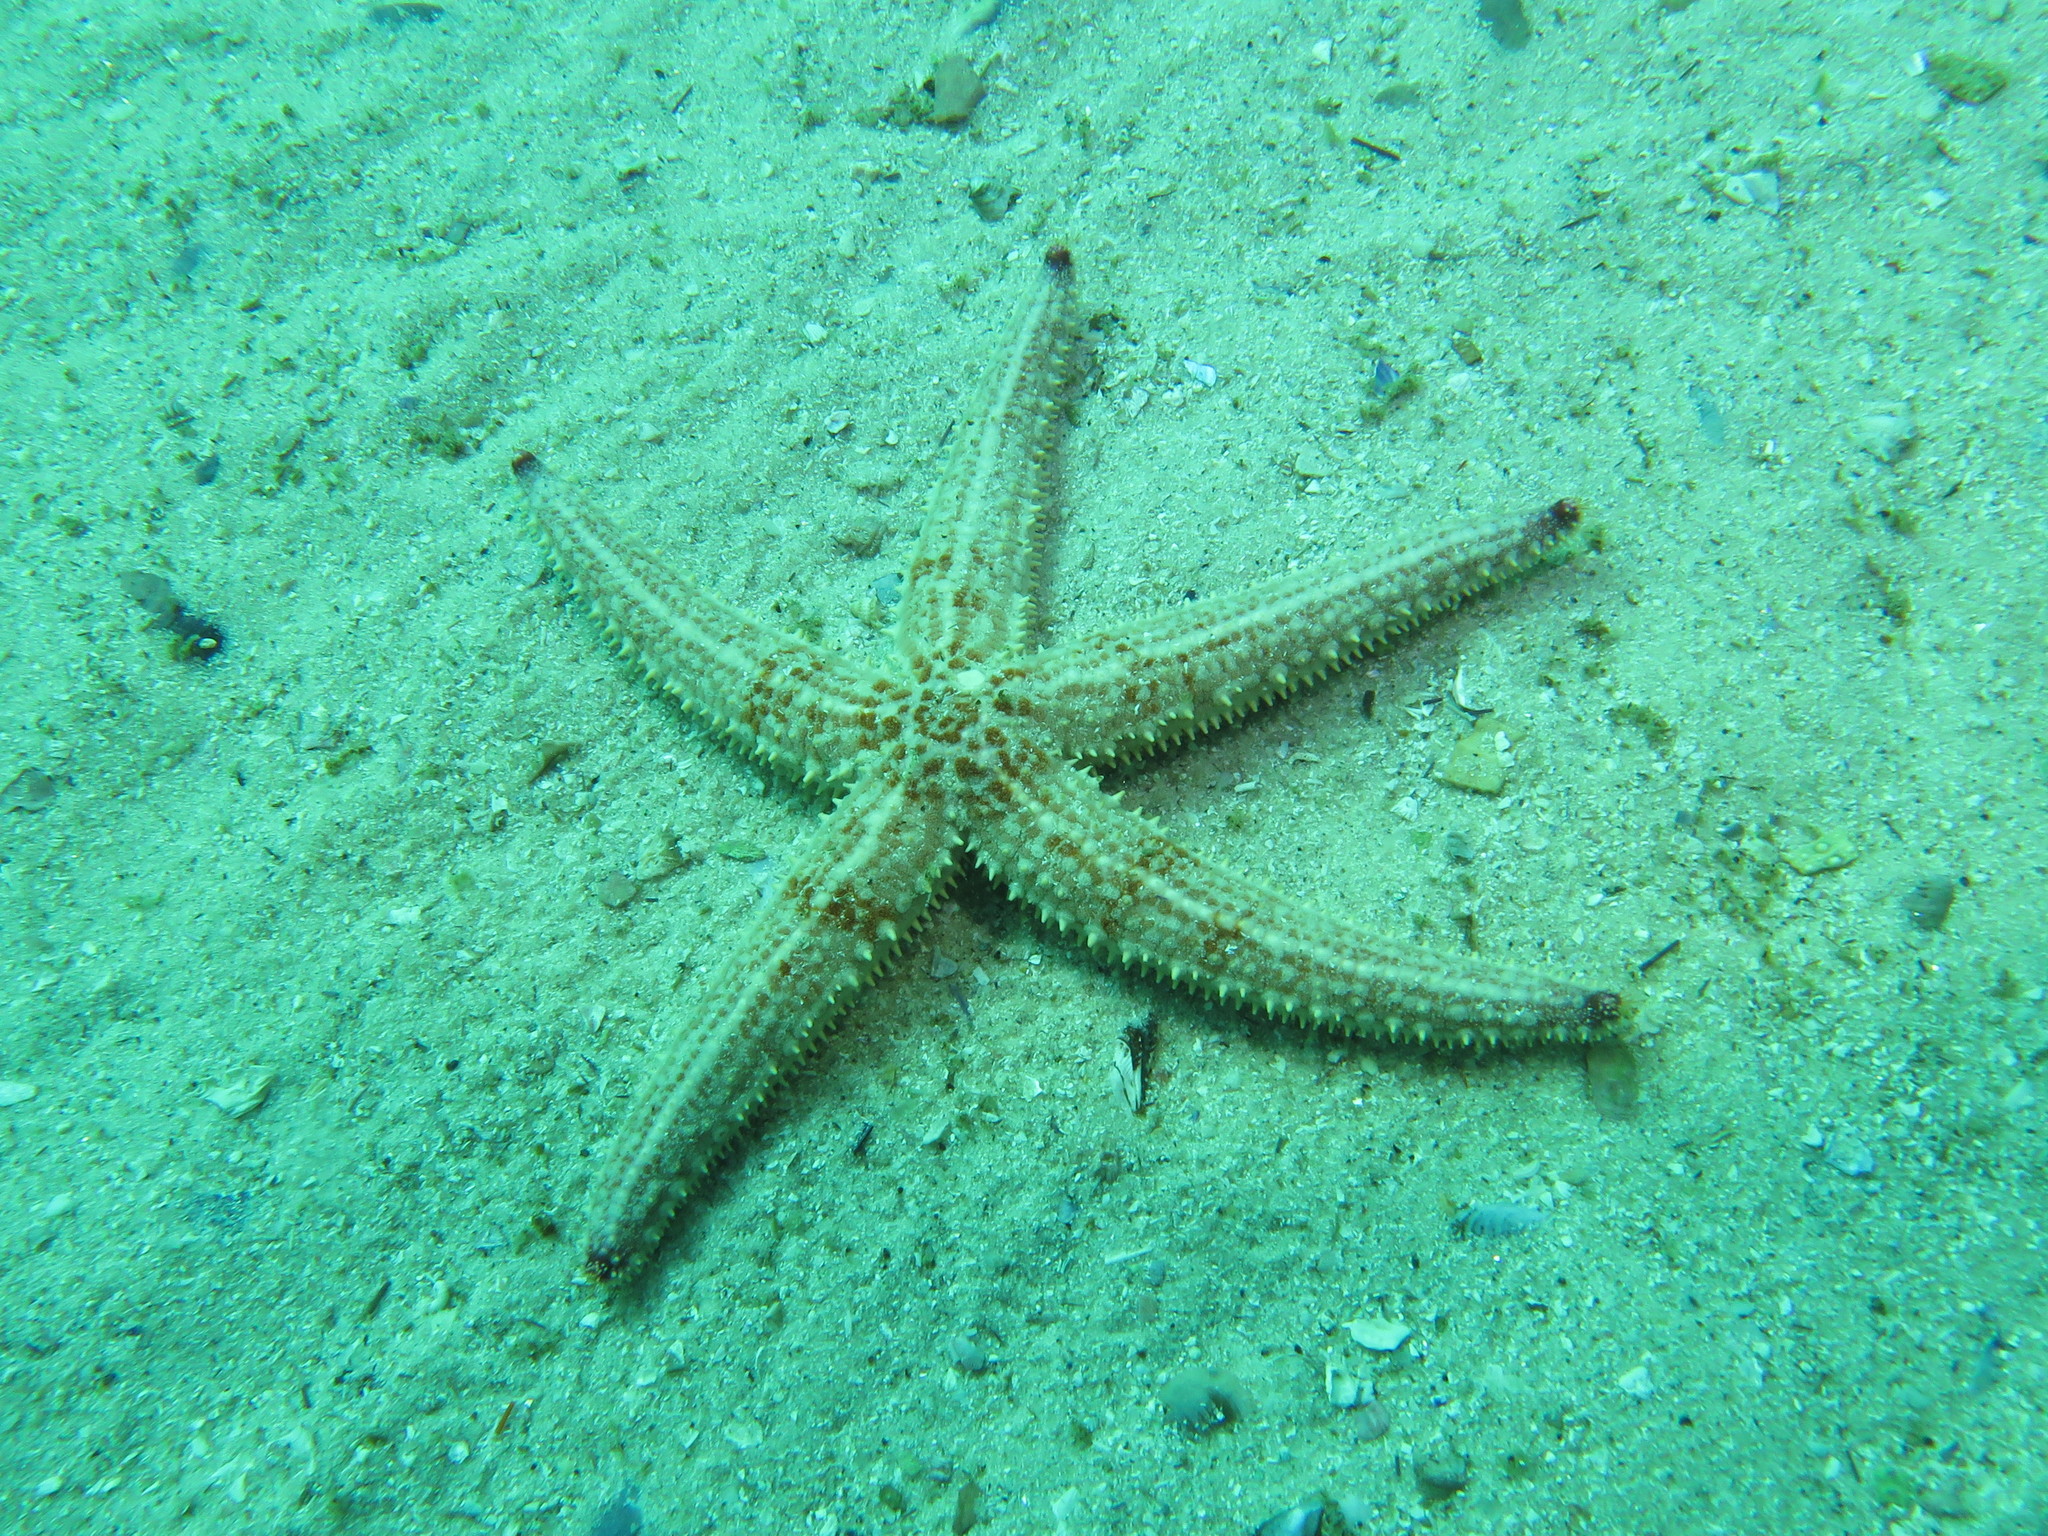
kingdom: Animalia
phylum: Echinodermata
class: Asteroidea
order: Forcipulatida
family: Asteriidae
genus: Marthasterias
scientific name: Marthasterias africana
